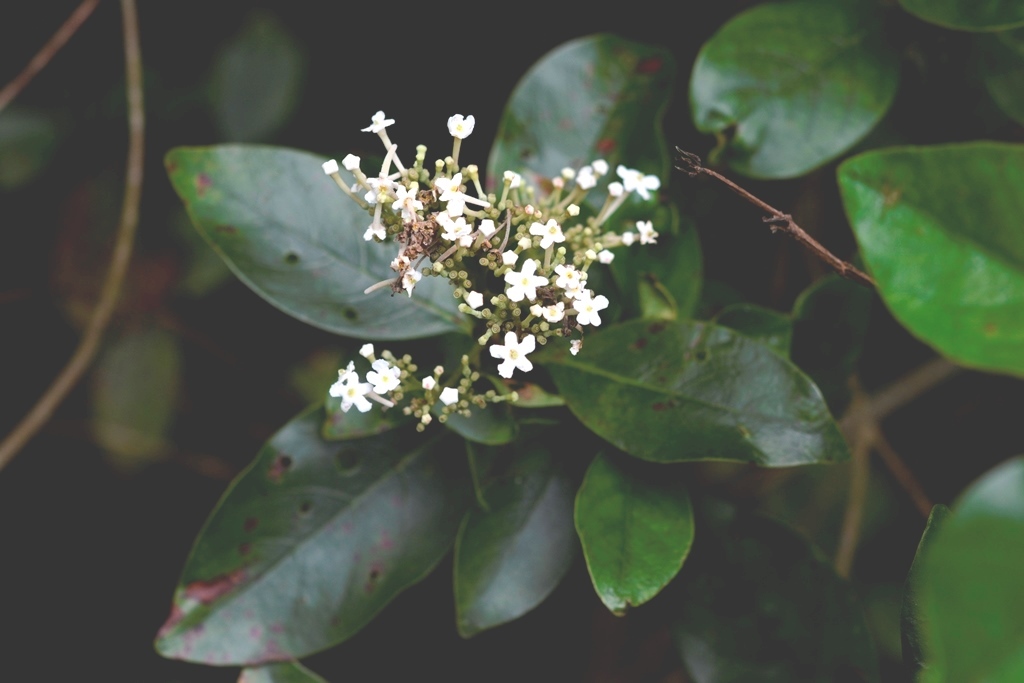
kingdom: Plantae
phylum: Tracheophyta
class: Magnoliopsida
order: Gentianales
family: Rubiaceae
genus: Rogiera
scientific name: Rogiera stenosiphon
